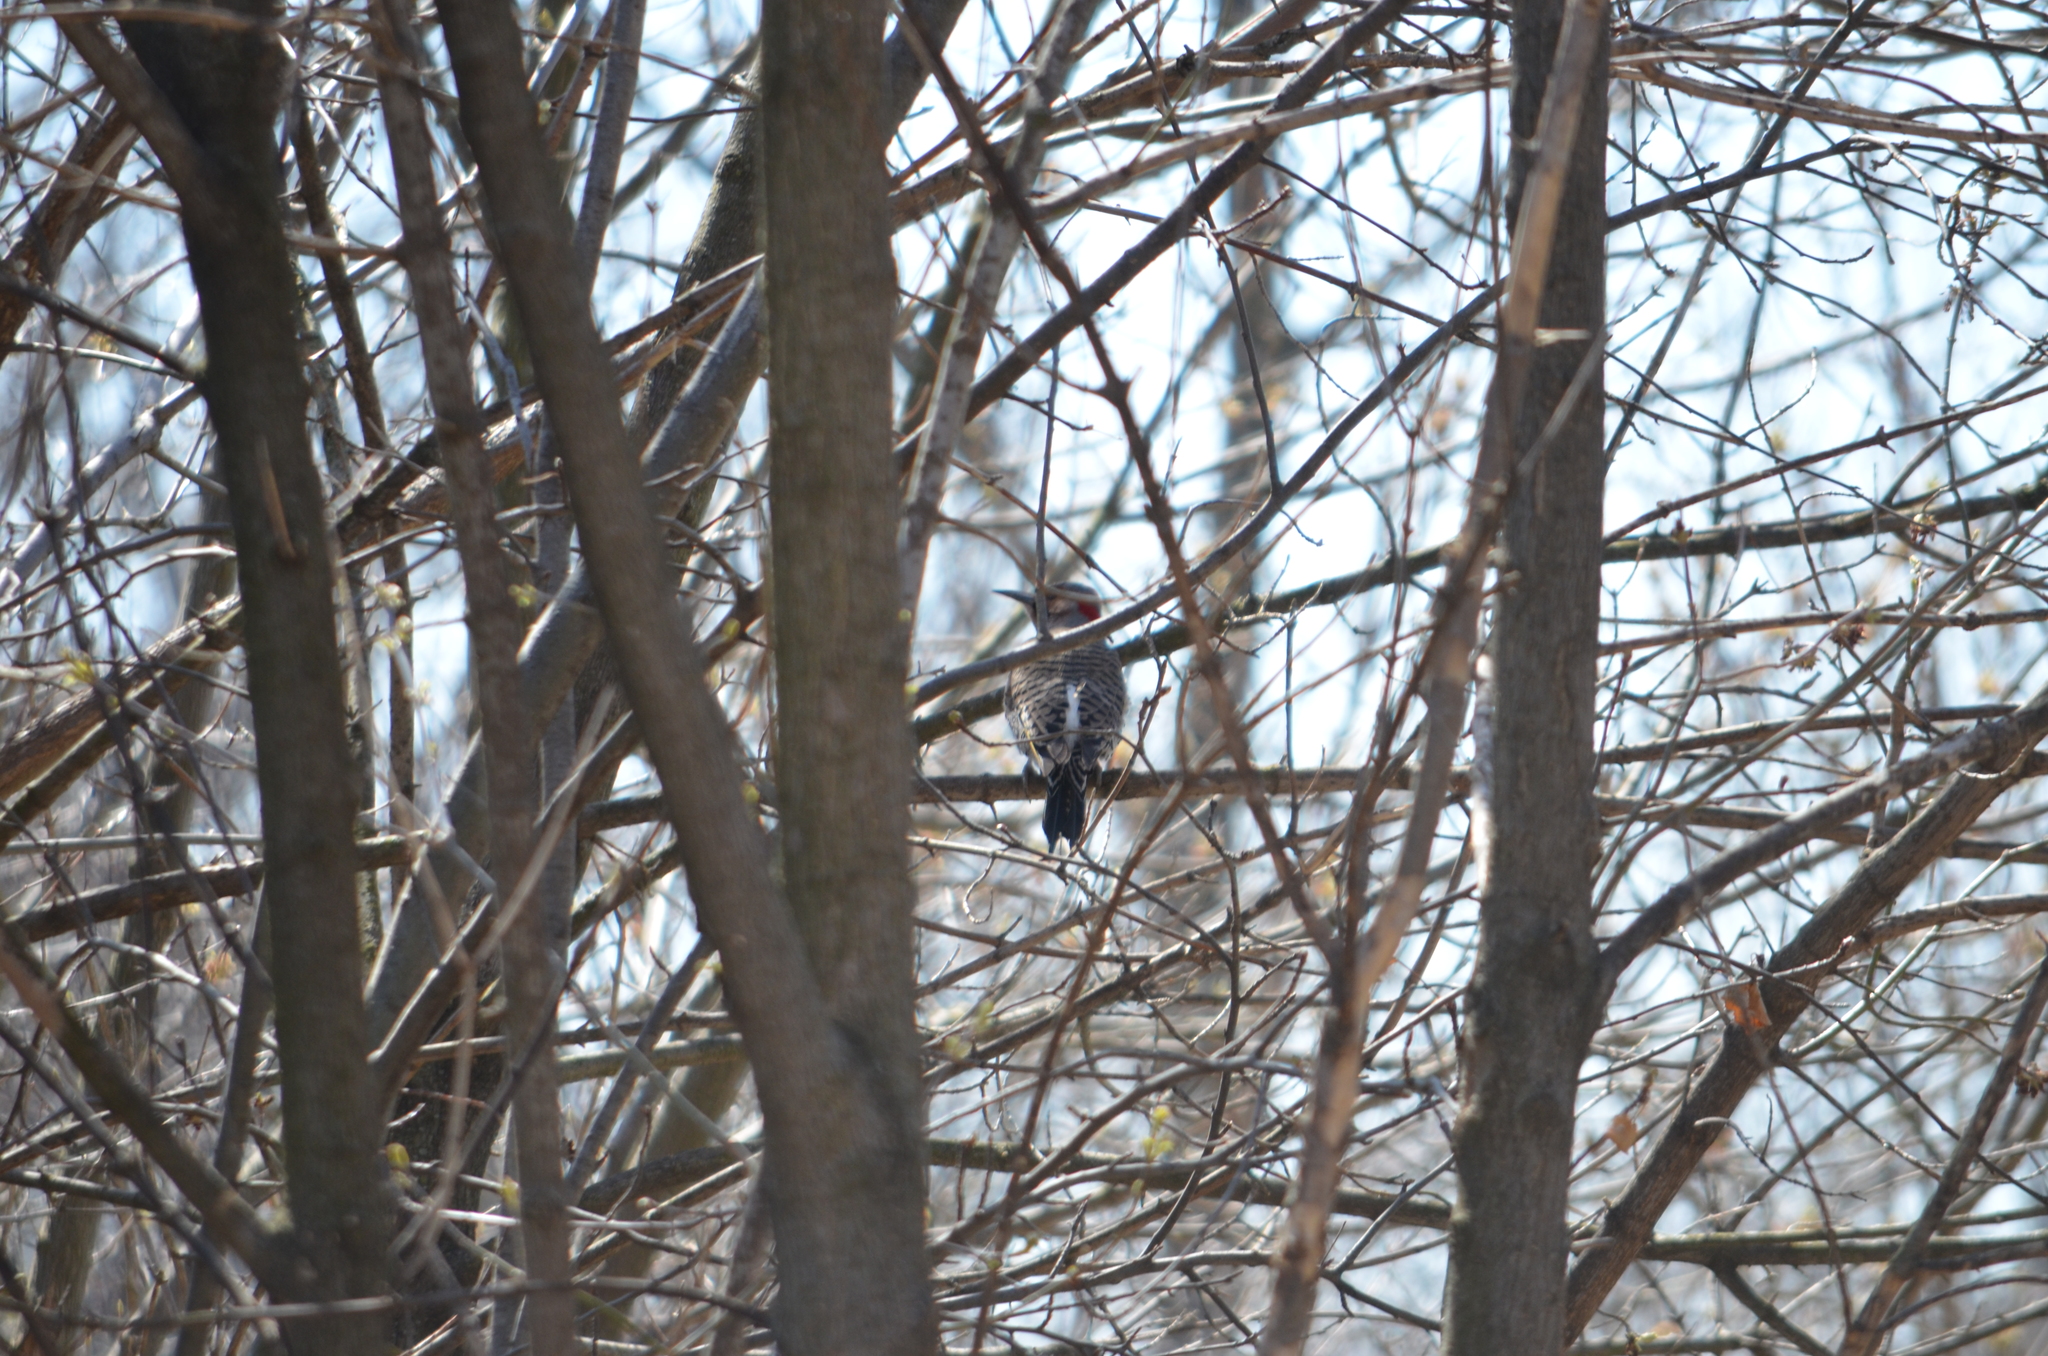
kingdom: Animalia
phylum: Chordata
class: Aves
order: Piciformes
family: Picidae
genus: Colaptes
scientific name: Colaptes auratus
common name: Northern flicker
